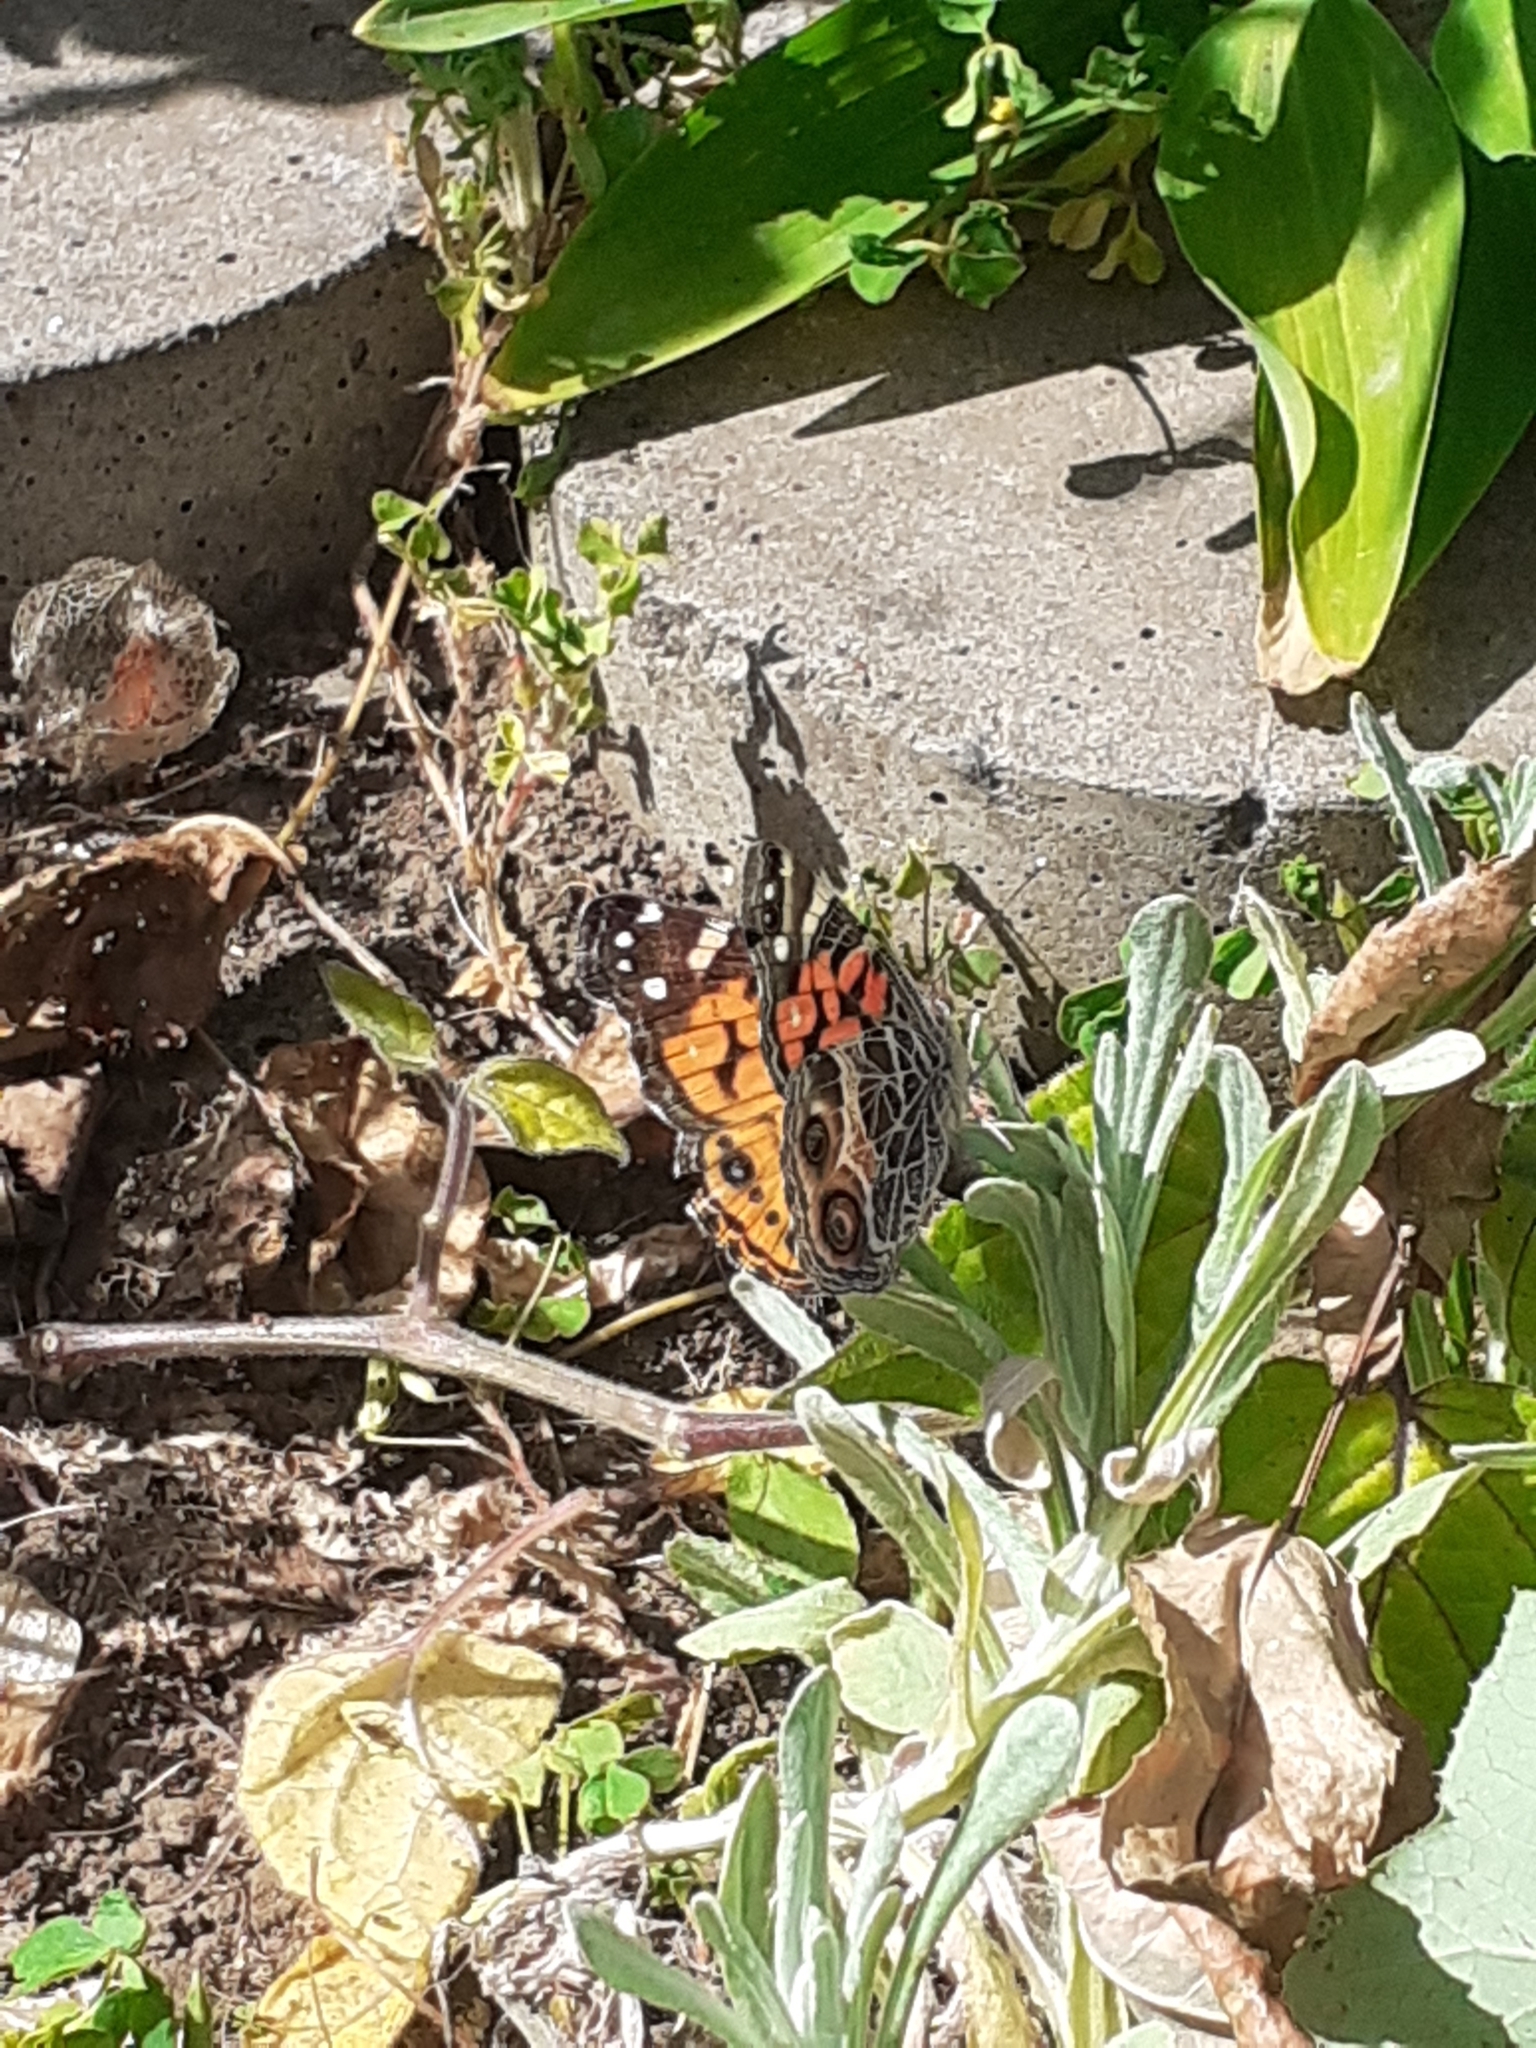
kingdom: Animalia
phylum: Arthropoda
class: Insecta
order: Lepidoptera
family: Nymphalidae
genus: Vanessa
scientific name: Vanessa virginiensis
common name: American lady
